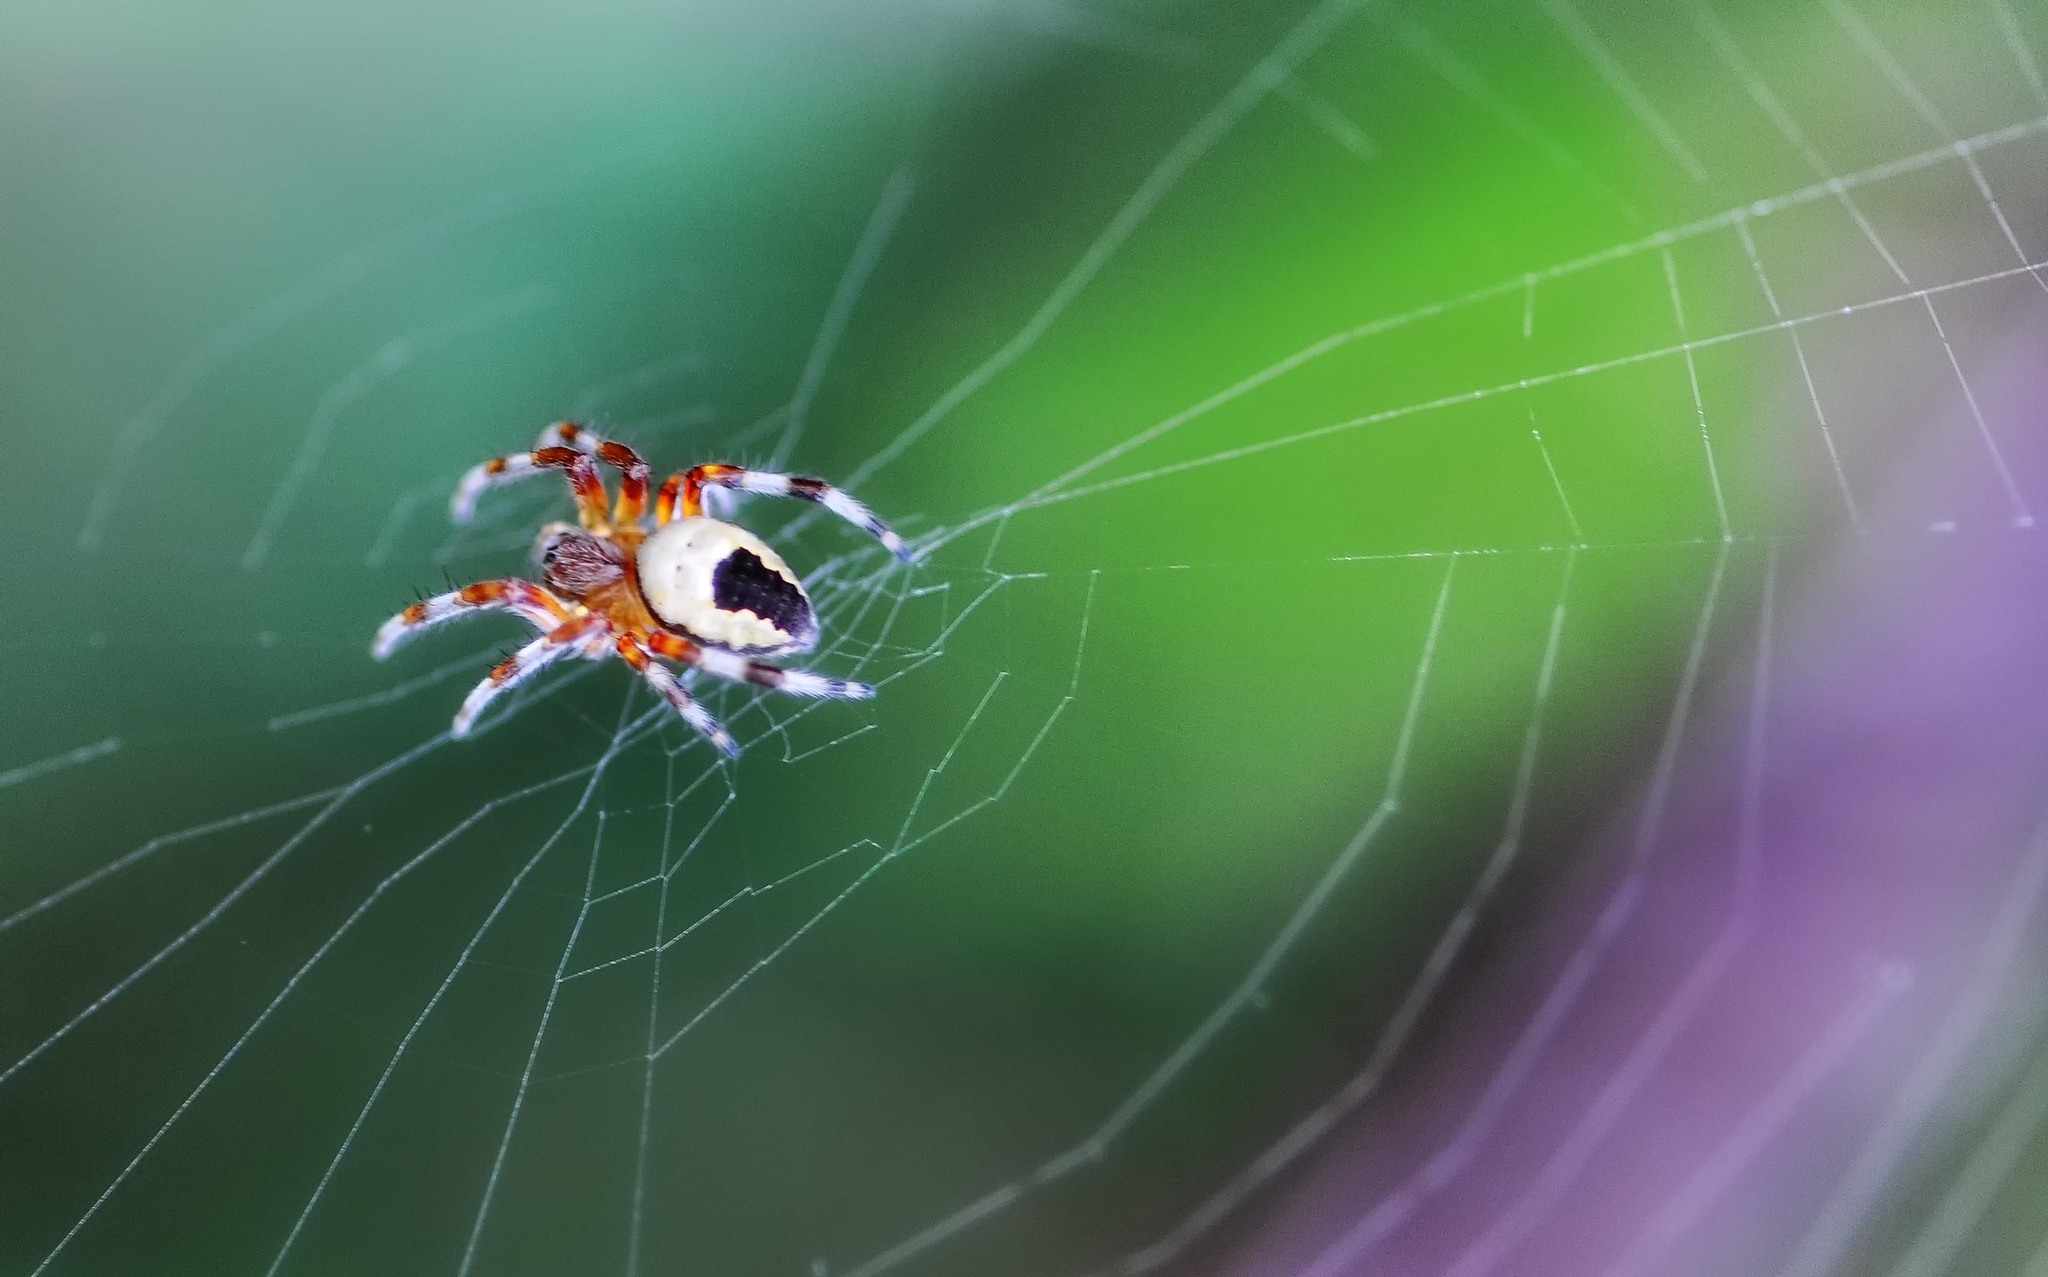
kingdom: Animalia
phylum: Arthropoda
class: Arachnida
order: Araneae
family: Araneidae
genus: Araneus
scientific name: Araneus marmoreus
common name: Marbled orbweaver
